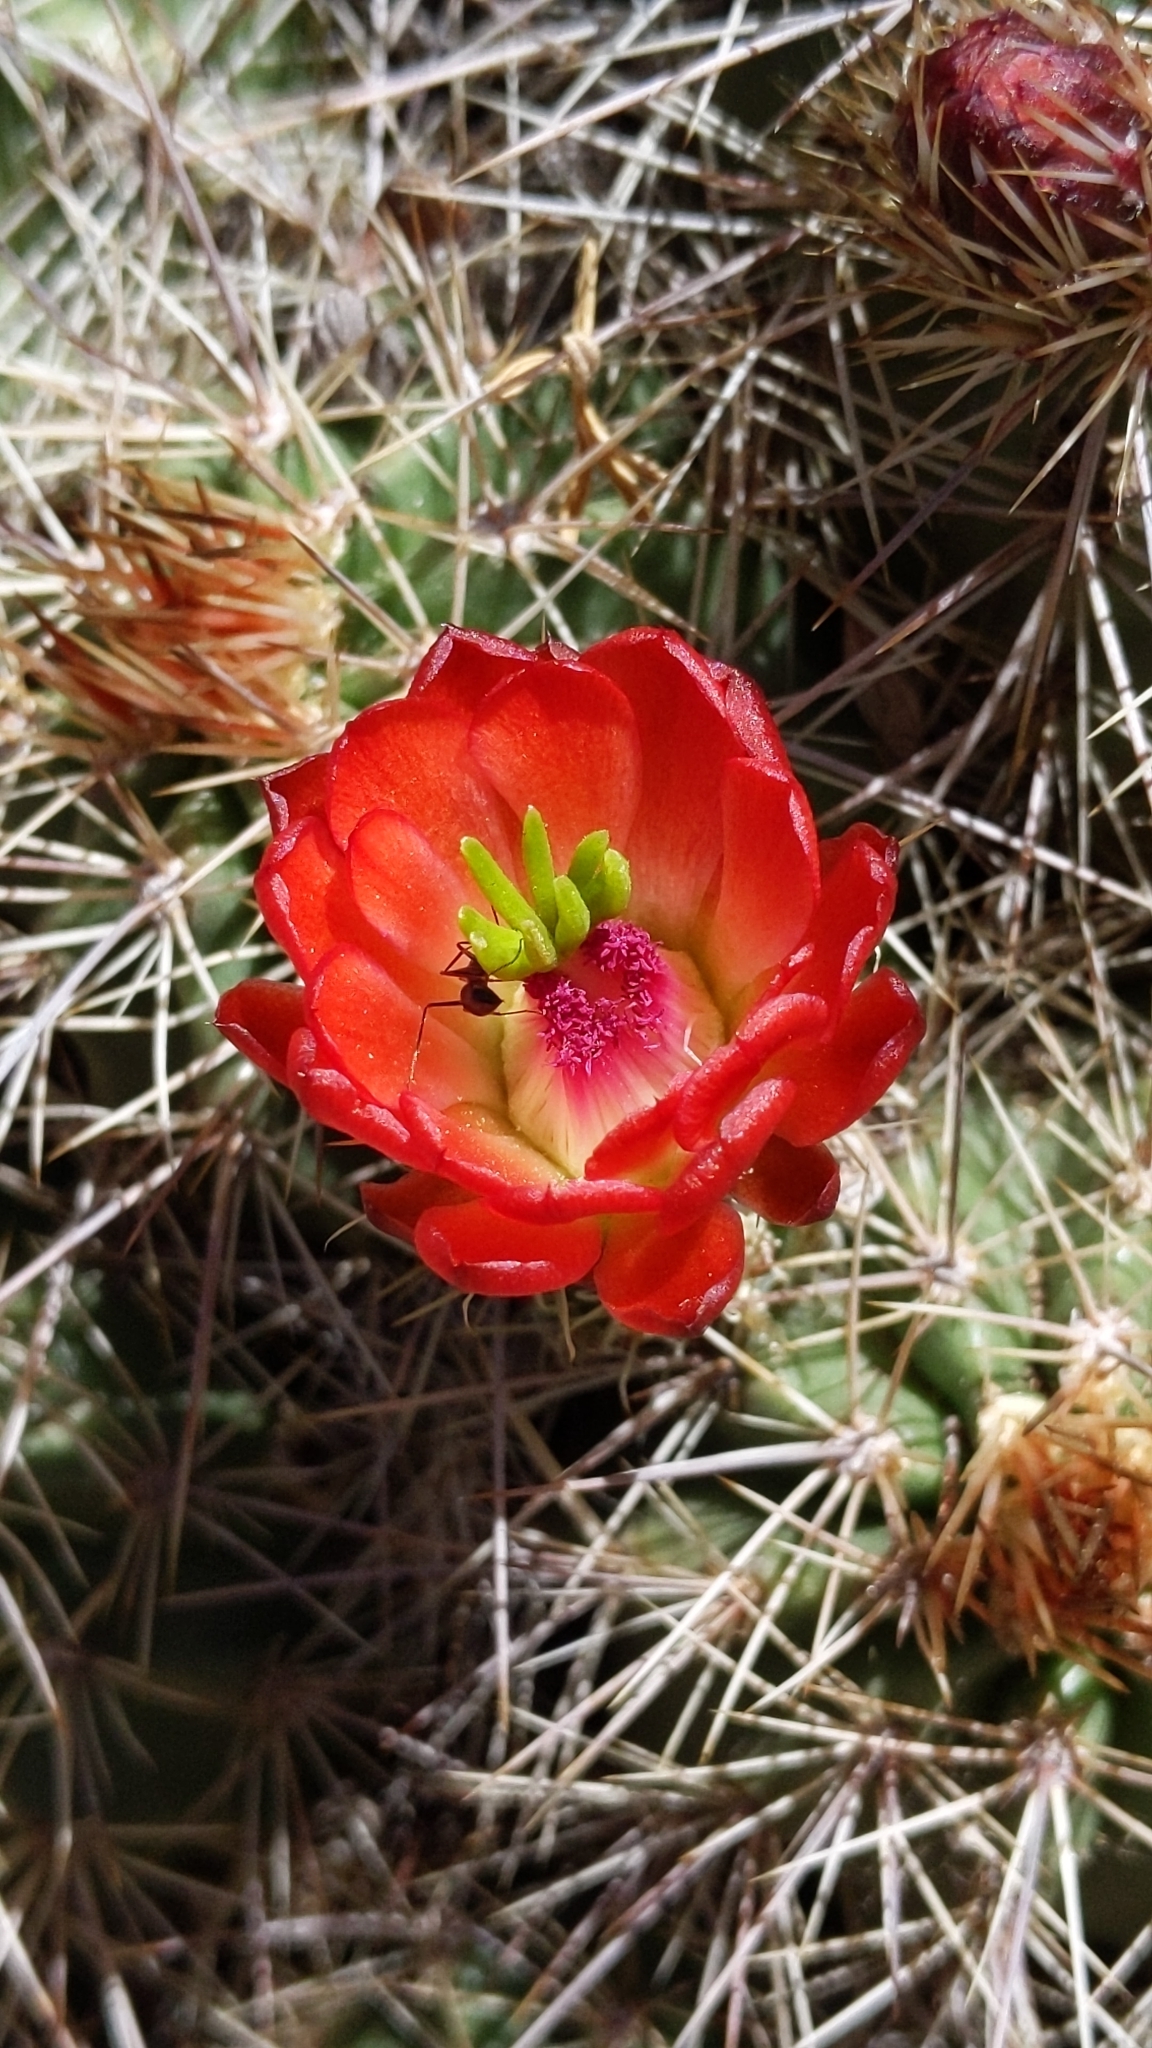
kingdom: Plantae
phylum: Tracheophyta
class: Magnoliopsida
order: Caryophyllales
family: Cactaceae
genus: Echinocereus
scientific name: Echinocereus coccineus
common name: Scarlet hedgehog cactus
